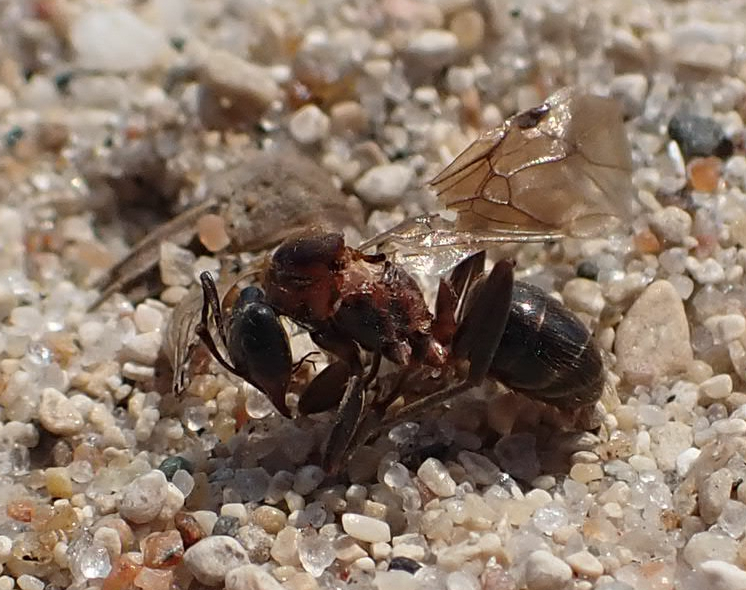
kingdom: Animalia
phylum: Arthropoda
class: Insecta
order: Hymenoptera
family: Formicidae
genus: Formica
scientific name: Formica ulkei
